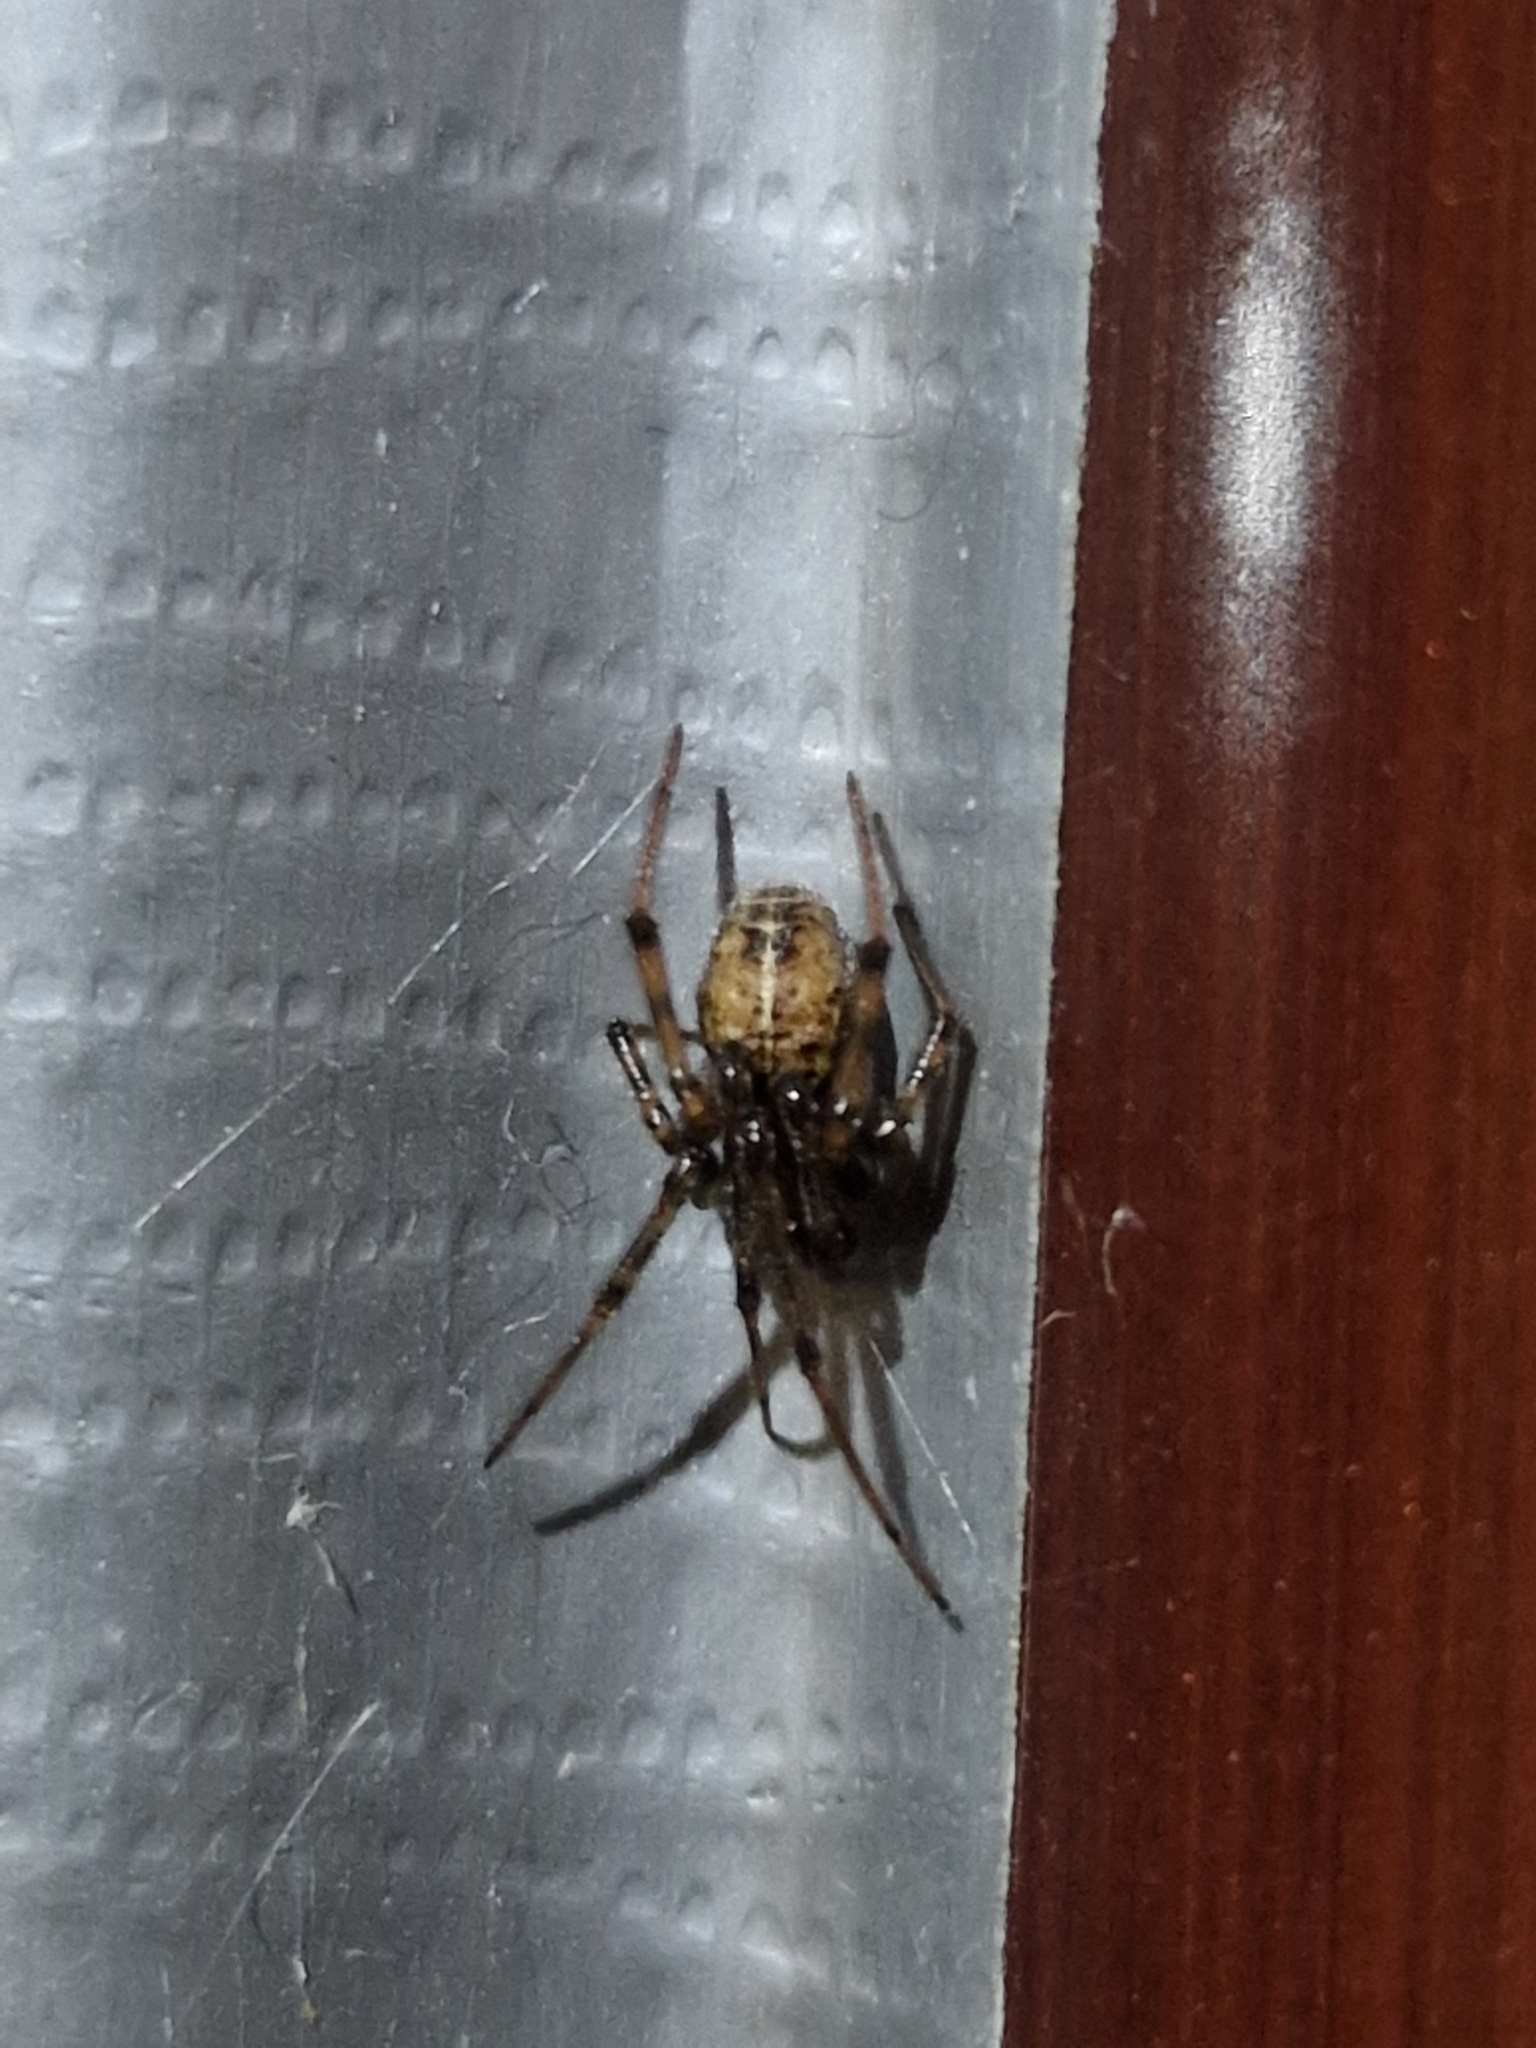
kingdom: Animalia
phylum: Arthropoda
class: Arachnida
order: Araneae
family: Theridiidae
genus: Steatoda
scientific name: Steatoda castanea
